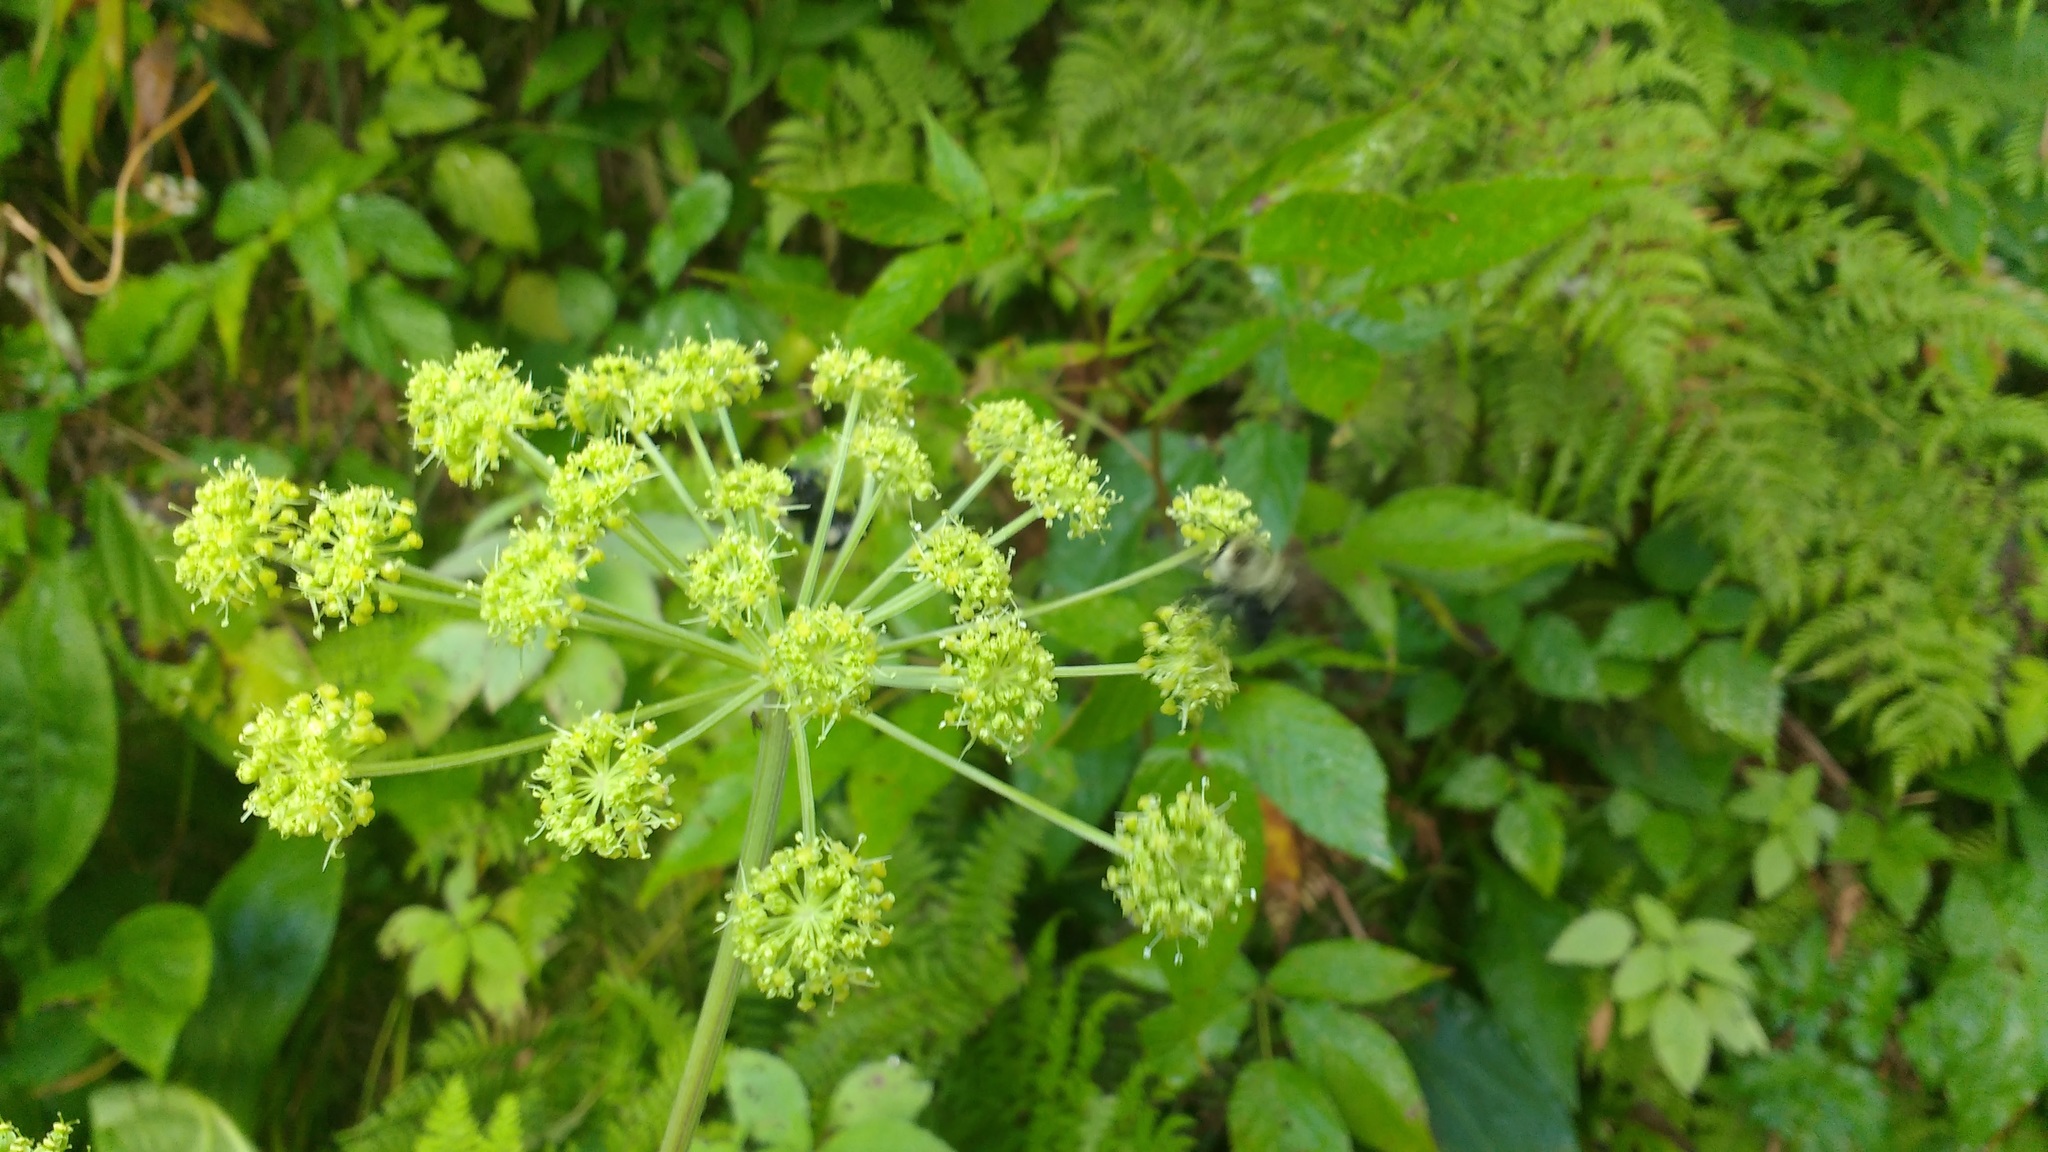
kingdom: Plantae
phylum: Tracheophyta
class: Magnoliopsida
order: Apiales
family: Apiaceae
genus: Angelica
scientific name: Angelica triquinata
